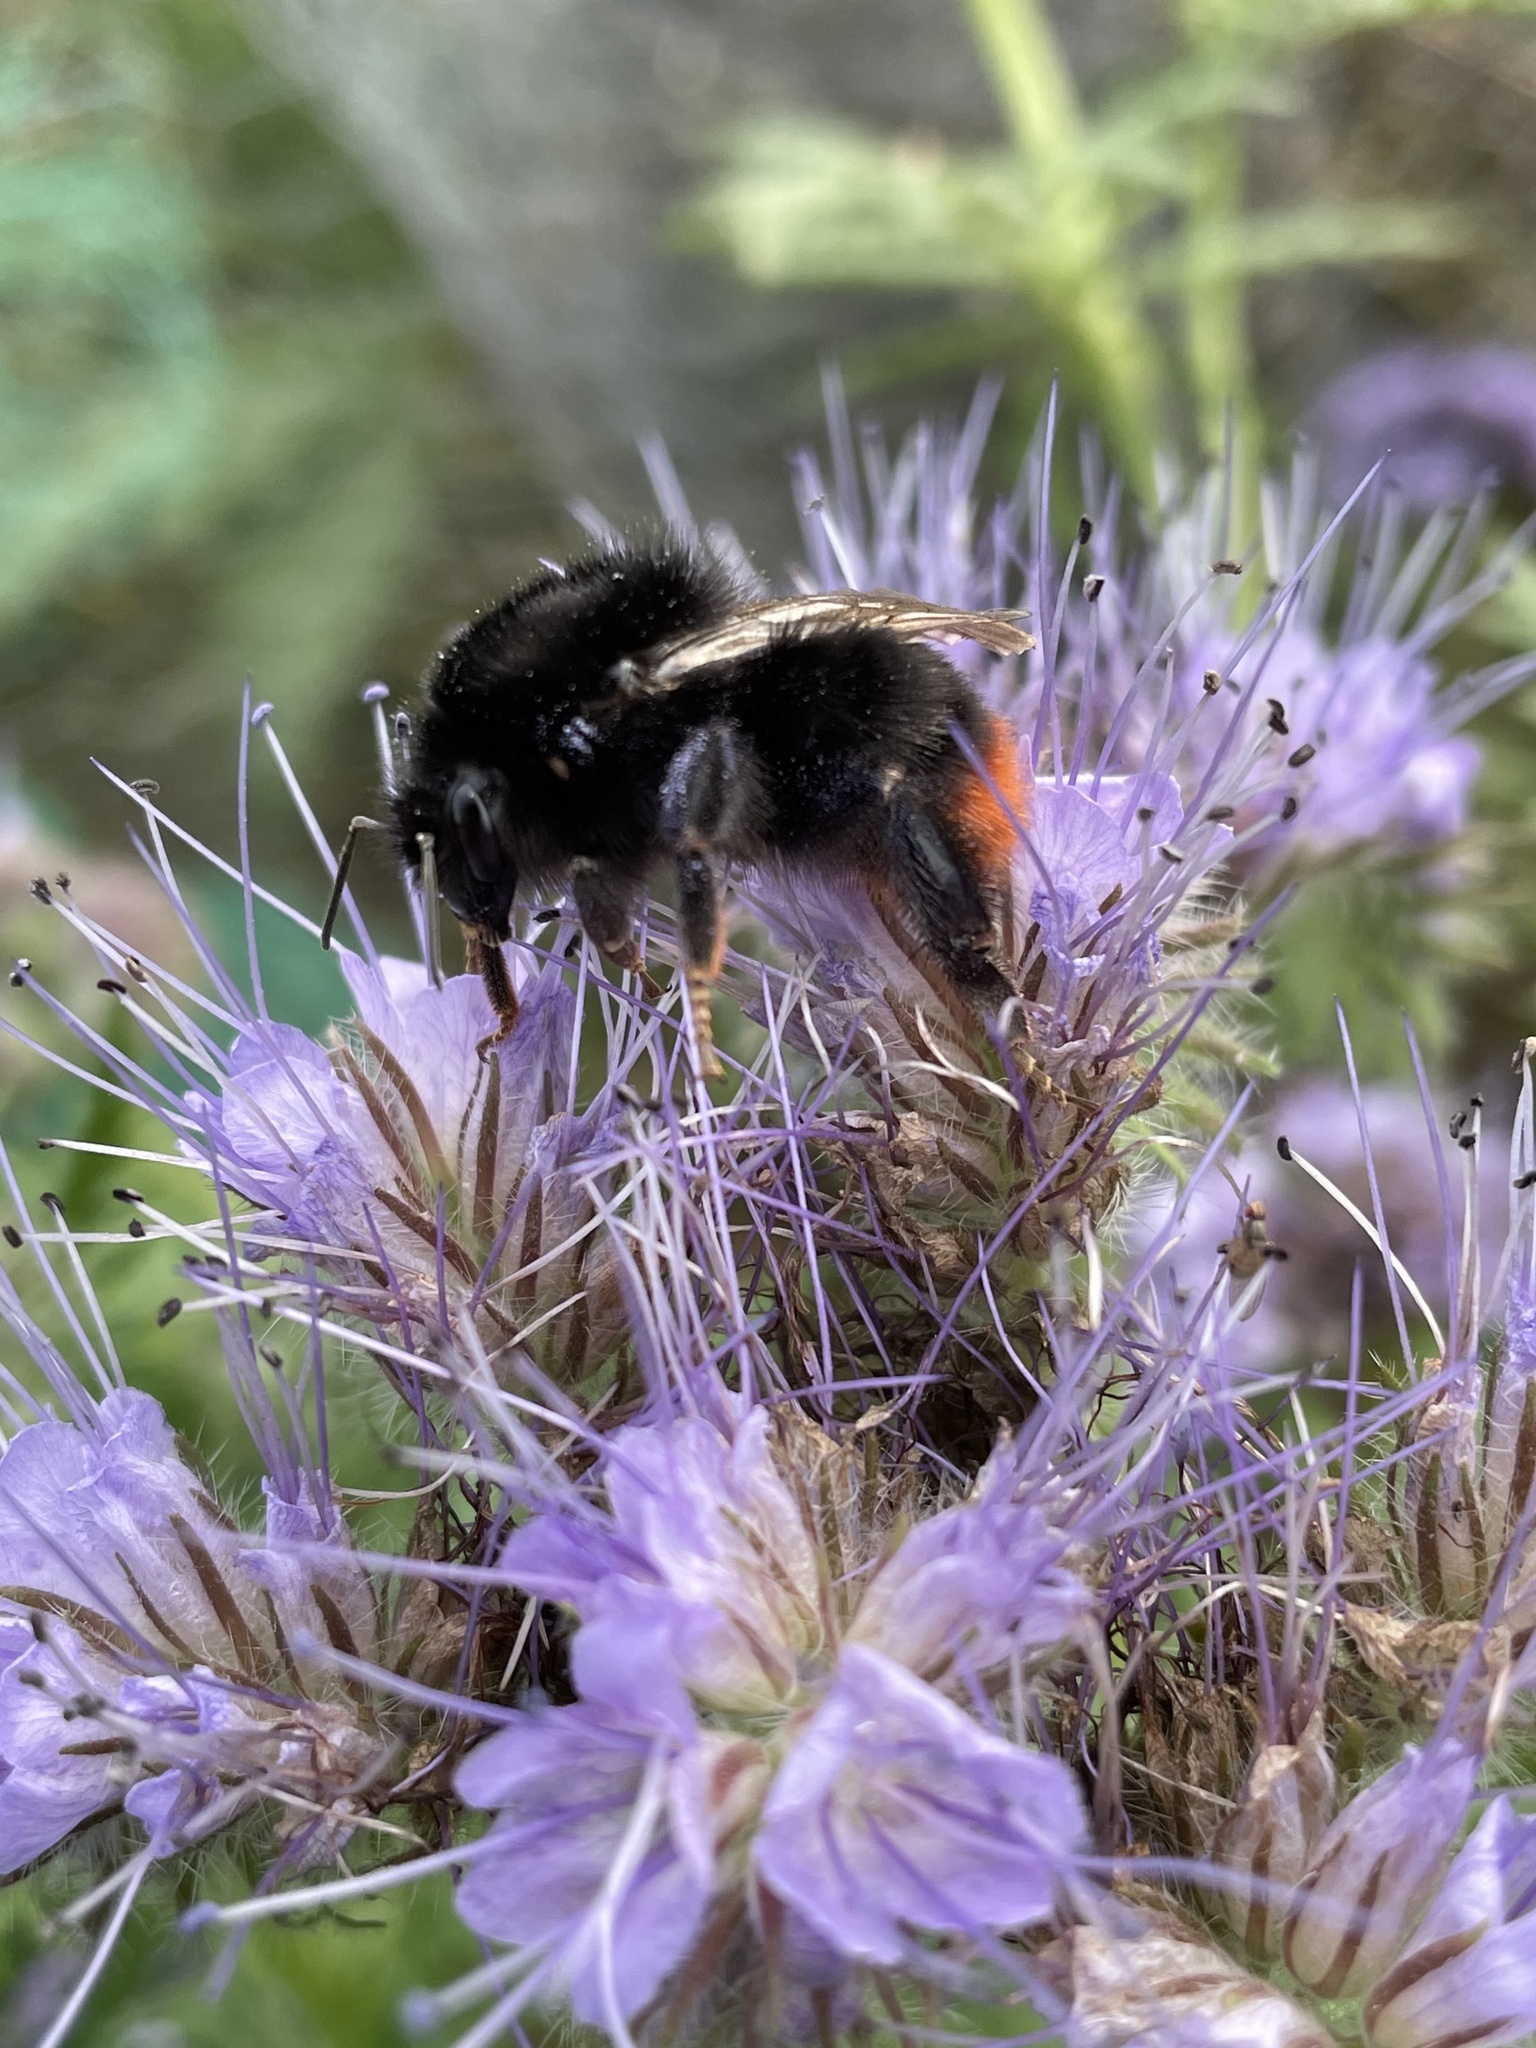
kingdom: Animalia
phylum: Arthropoda
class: Insecta
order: Hymenoptera
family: Apidae
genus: Bombus
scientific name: Bombus lapidarius
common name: Large red-tailed humble-bee
